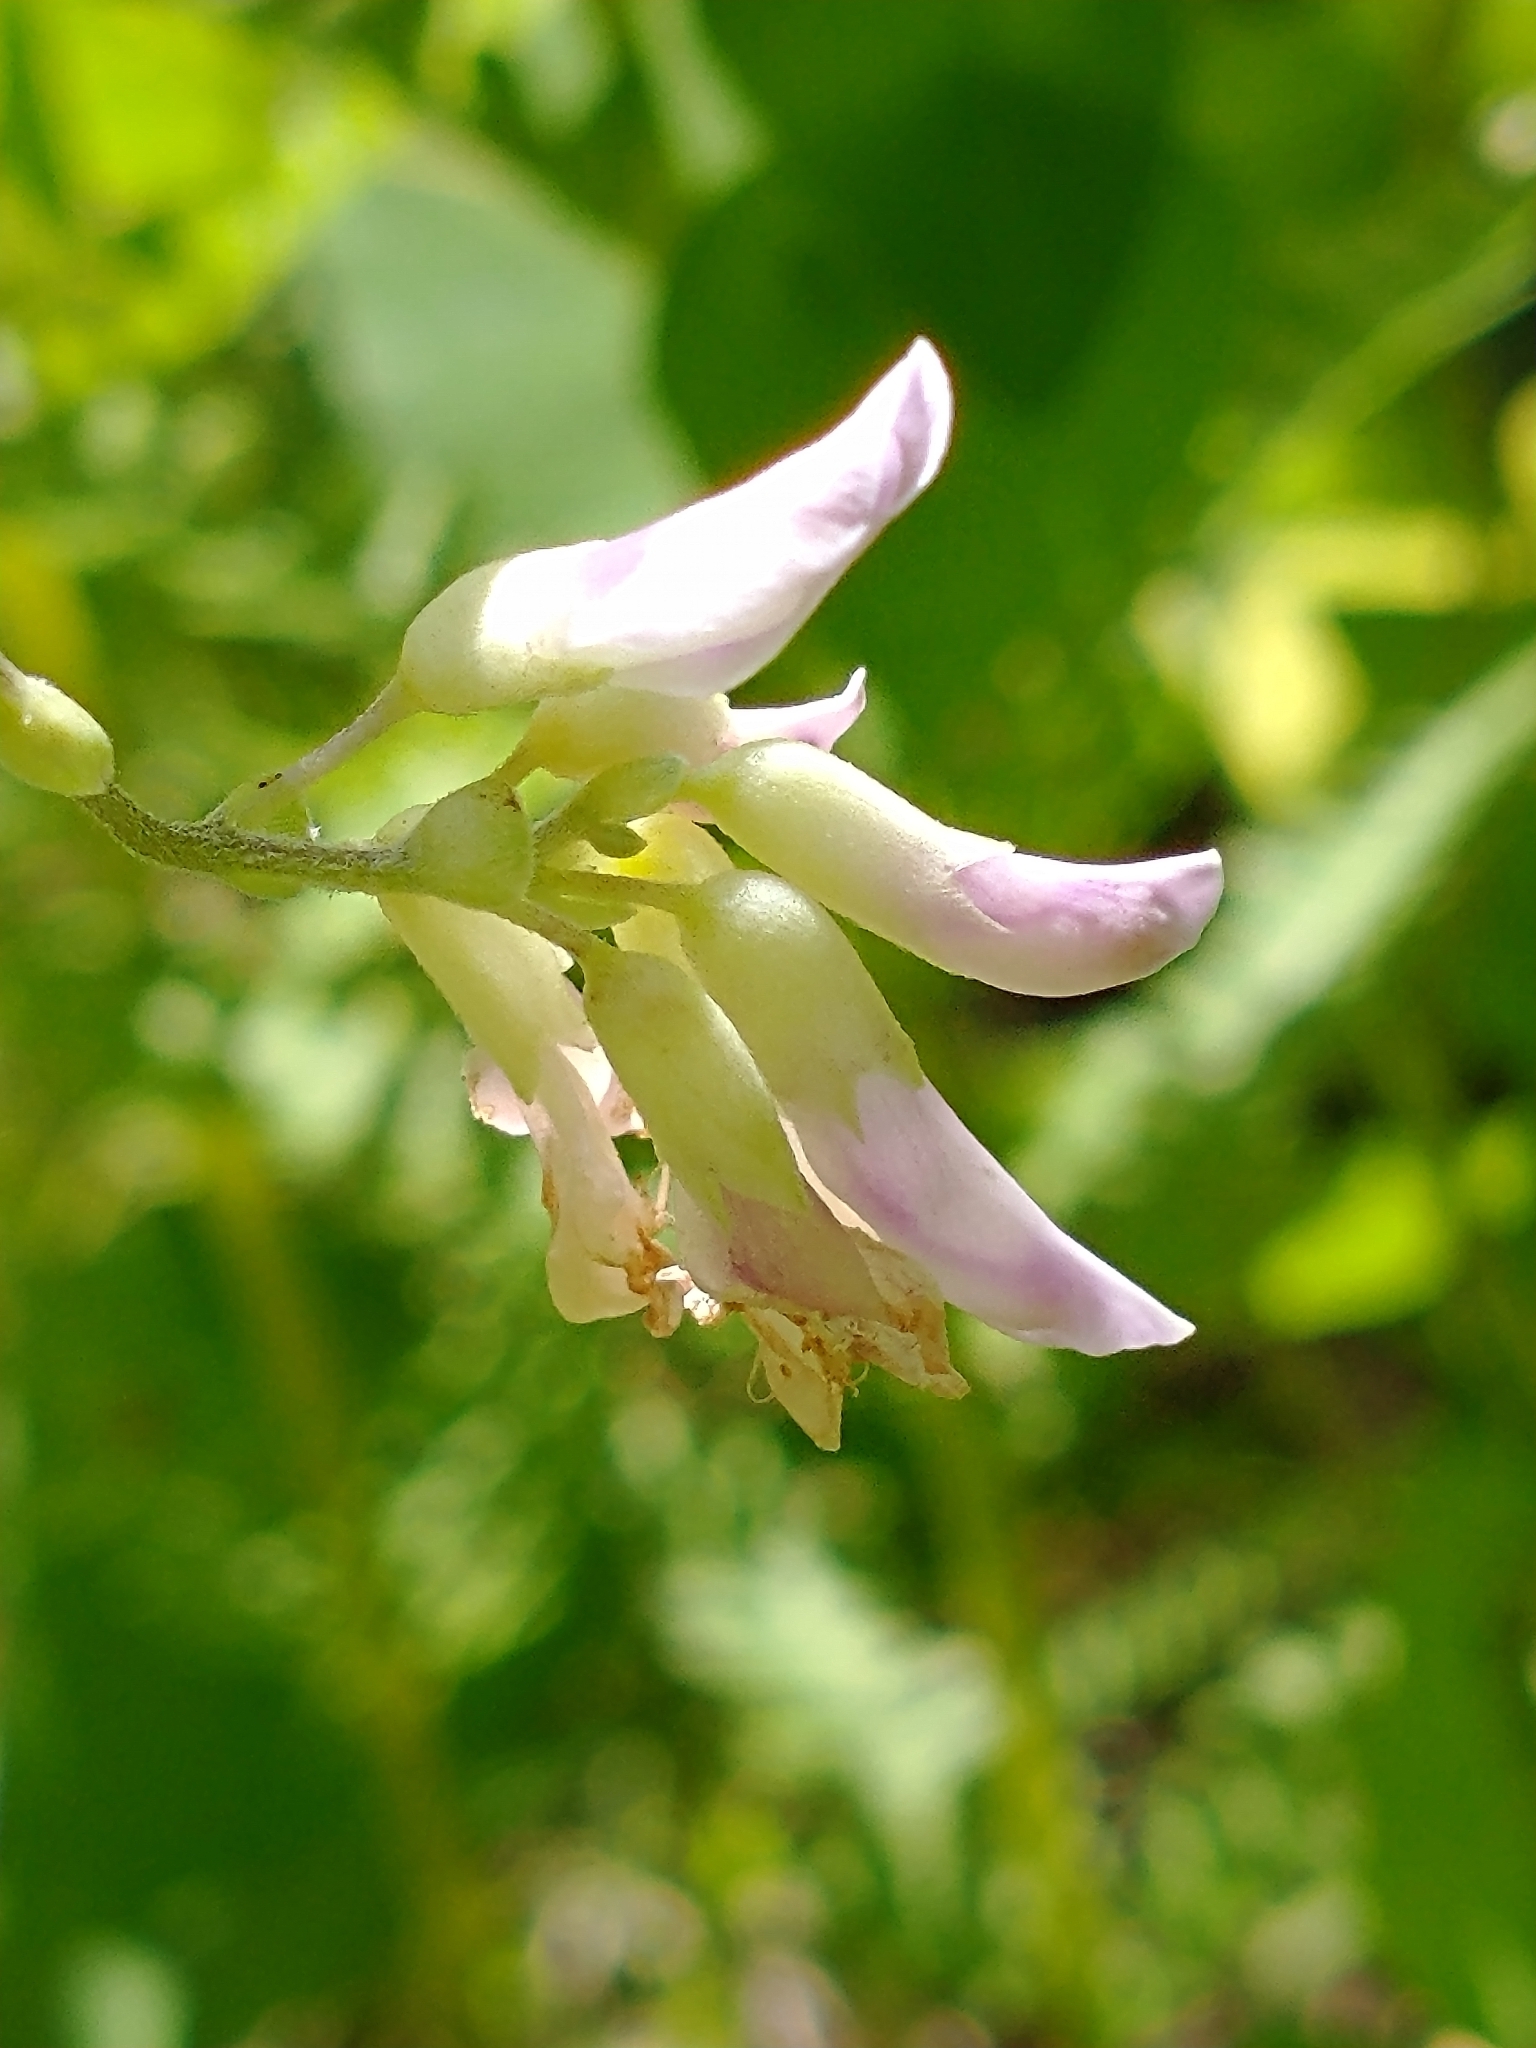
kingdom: Plantae
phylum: Tracheophyta
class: Magnoliopsida
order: Fabales
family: Fabaceae
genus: Amphicarpaea
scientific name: Amphicarpaea bracteata
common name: American hog peanut
